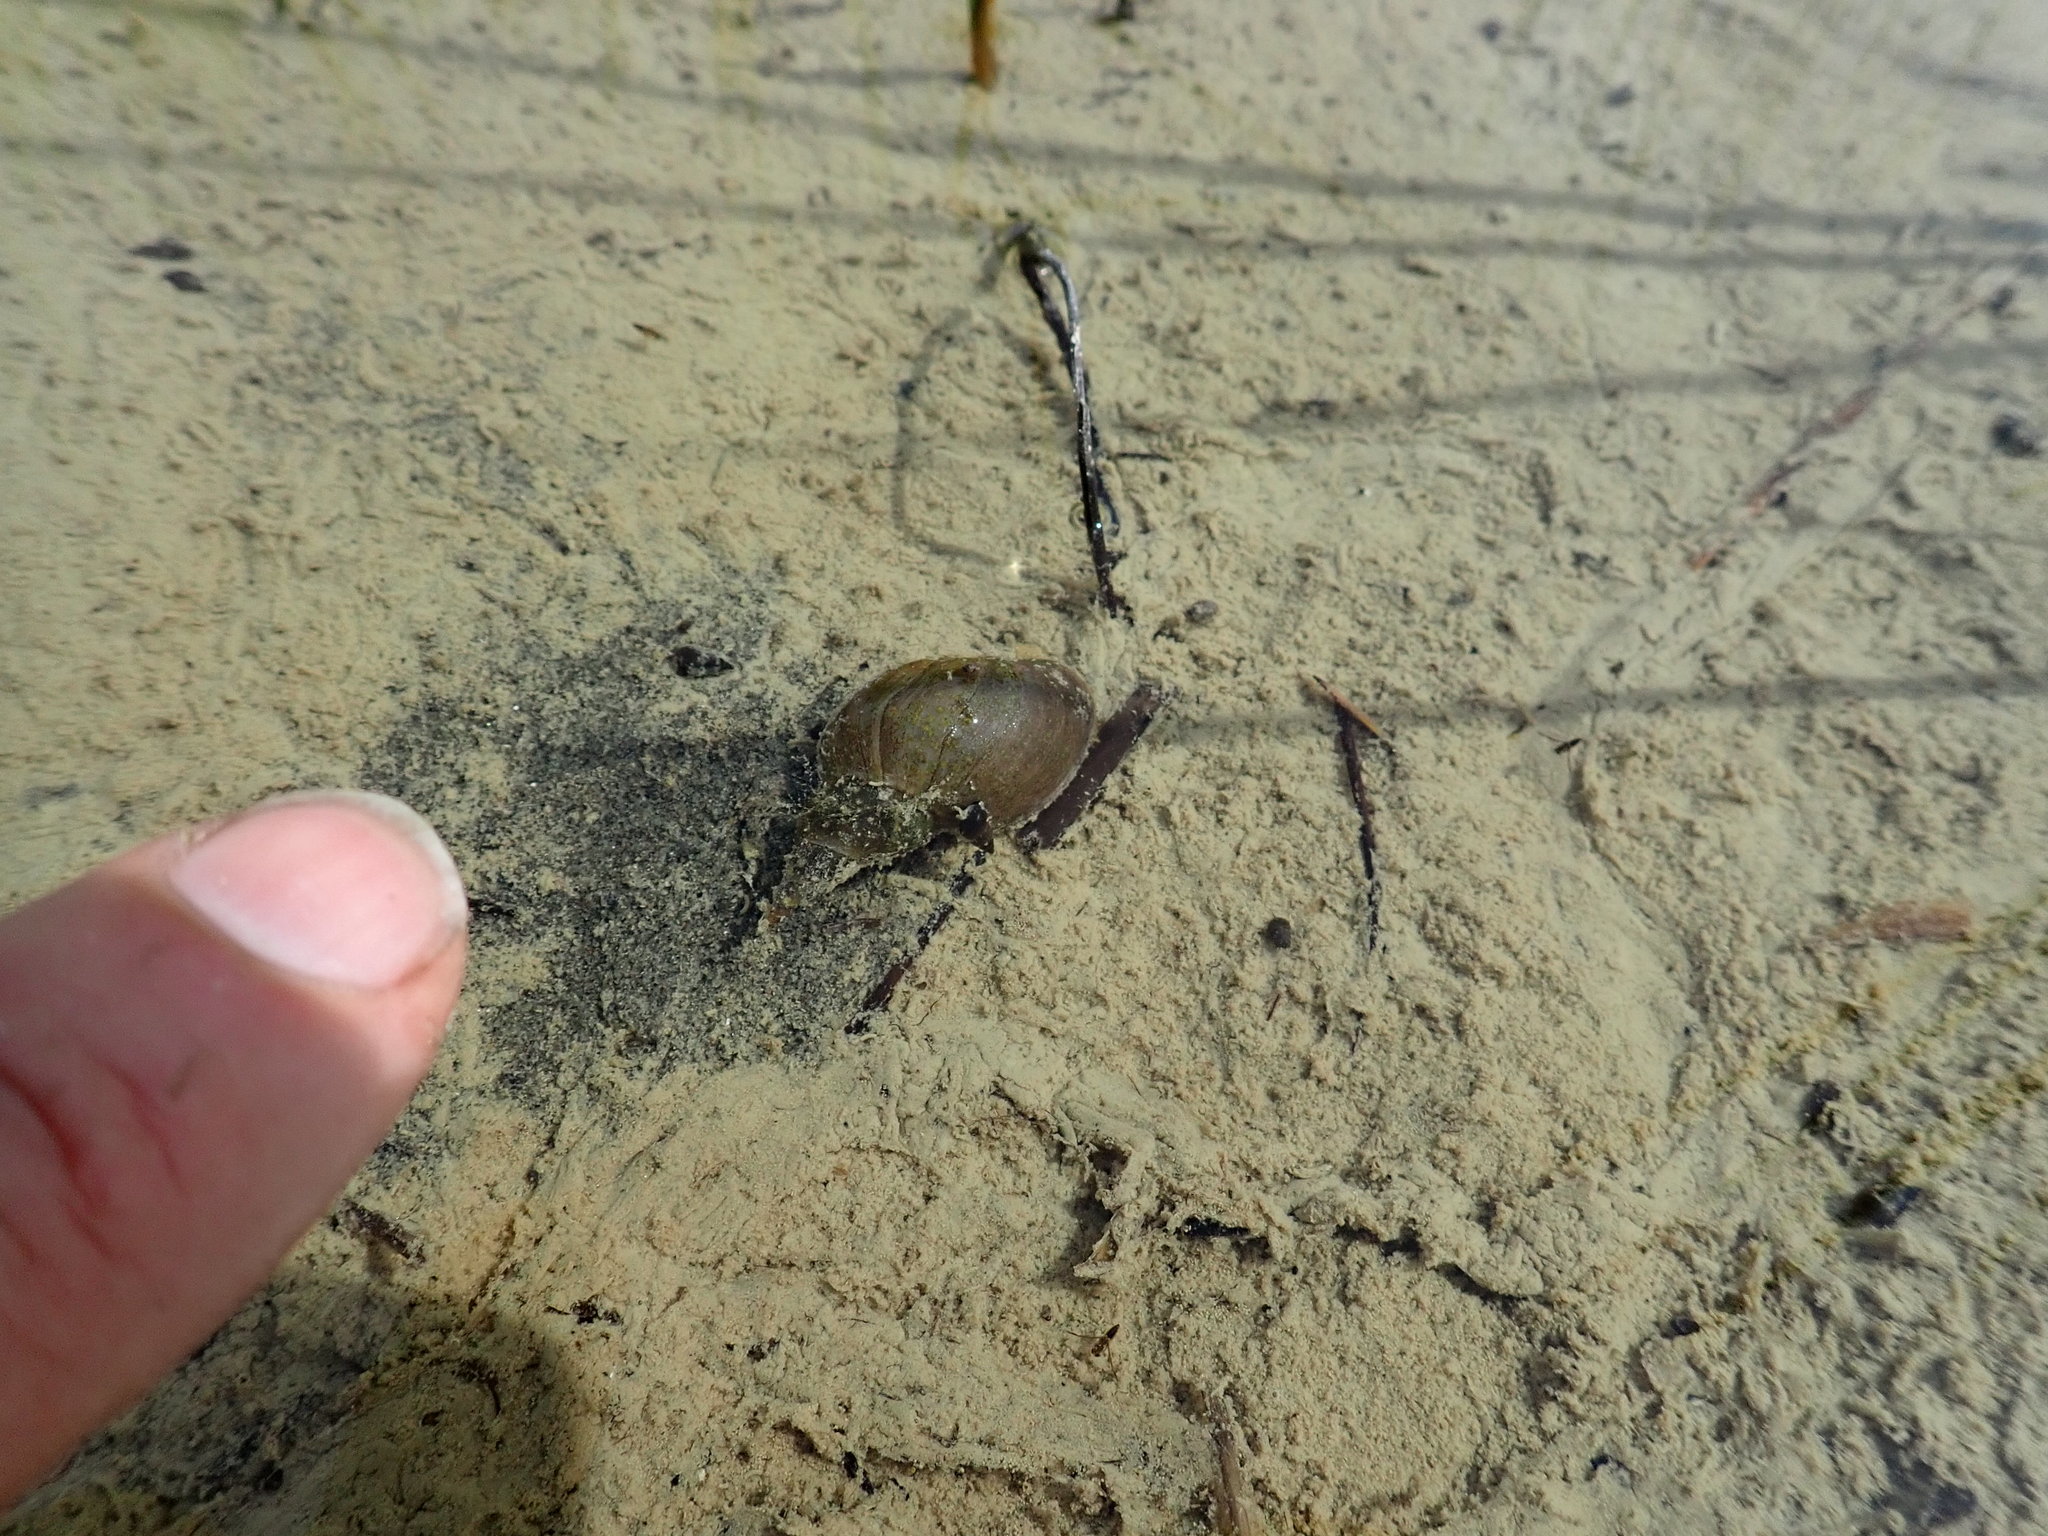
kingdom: Animalia
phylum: Mollusca
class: Gastropoda
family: Lymnaeidae
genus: Lymnaea
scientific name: Lymnaea stagnalis
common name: Great pond snail
